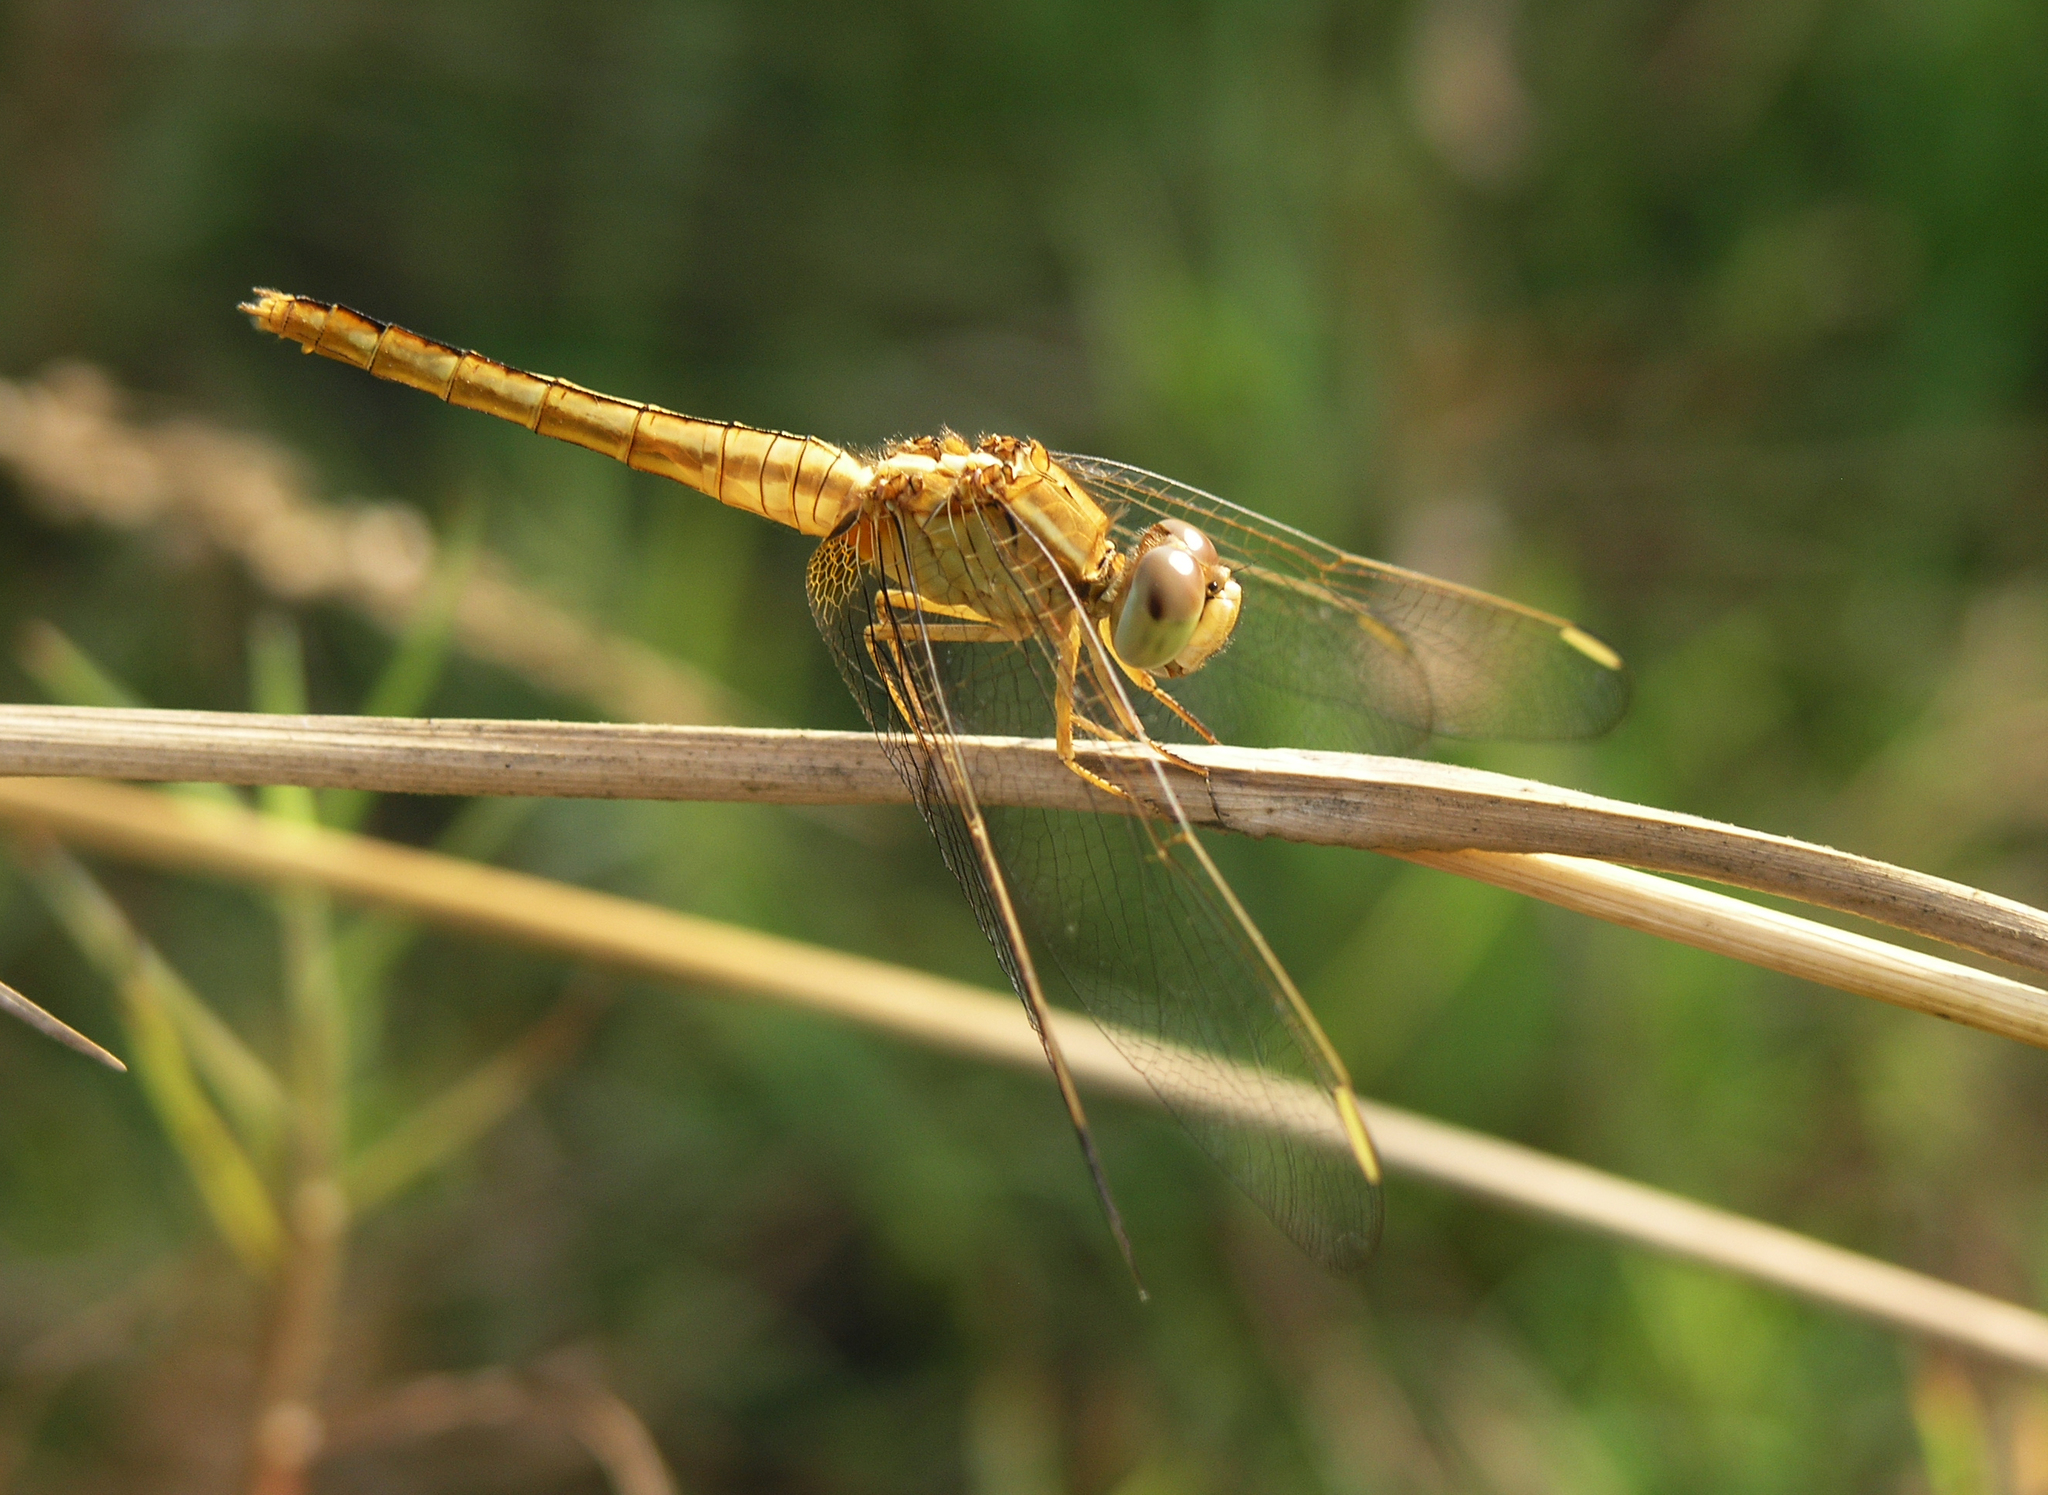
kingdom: Animalia
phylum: Arthropoda
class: Insecta
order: Odonata
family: Libellulidae
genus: Crocothemis
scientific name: Crocothemis servilia
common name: Scarlet skimmer
